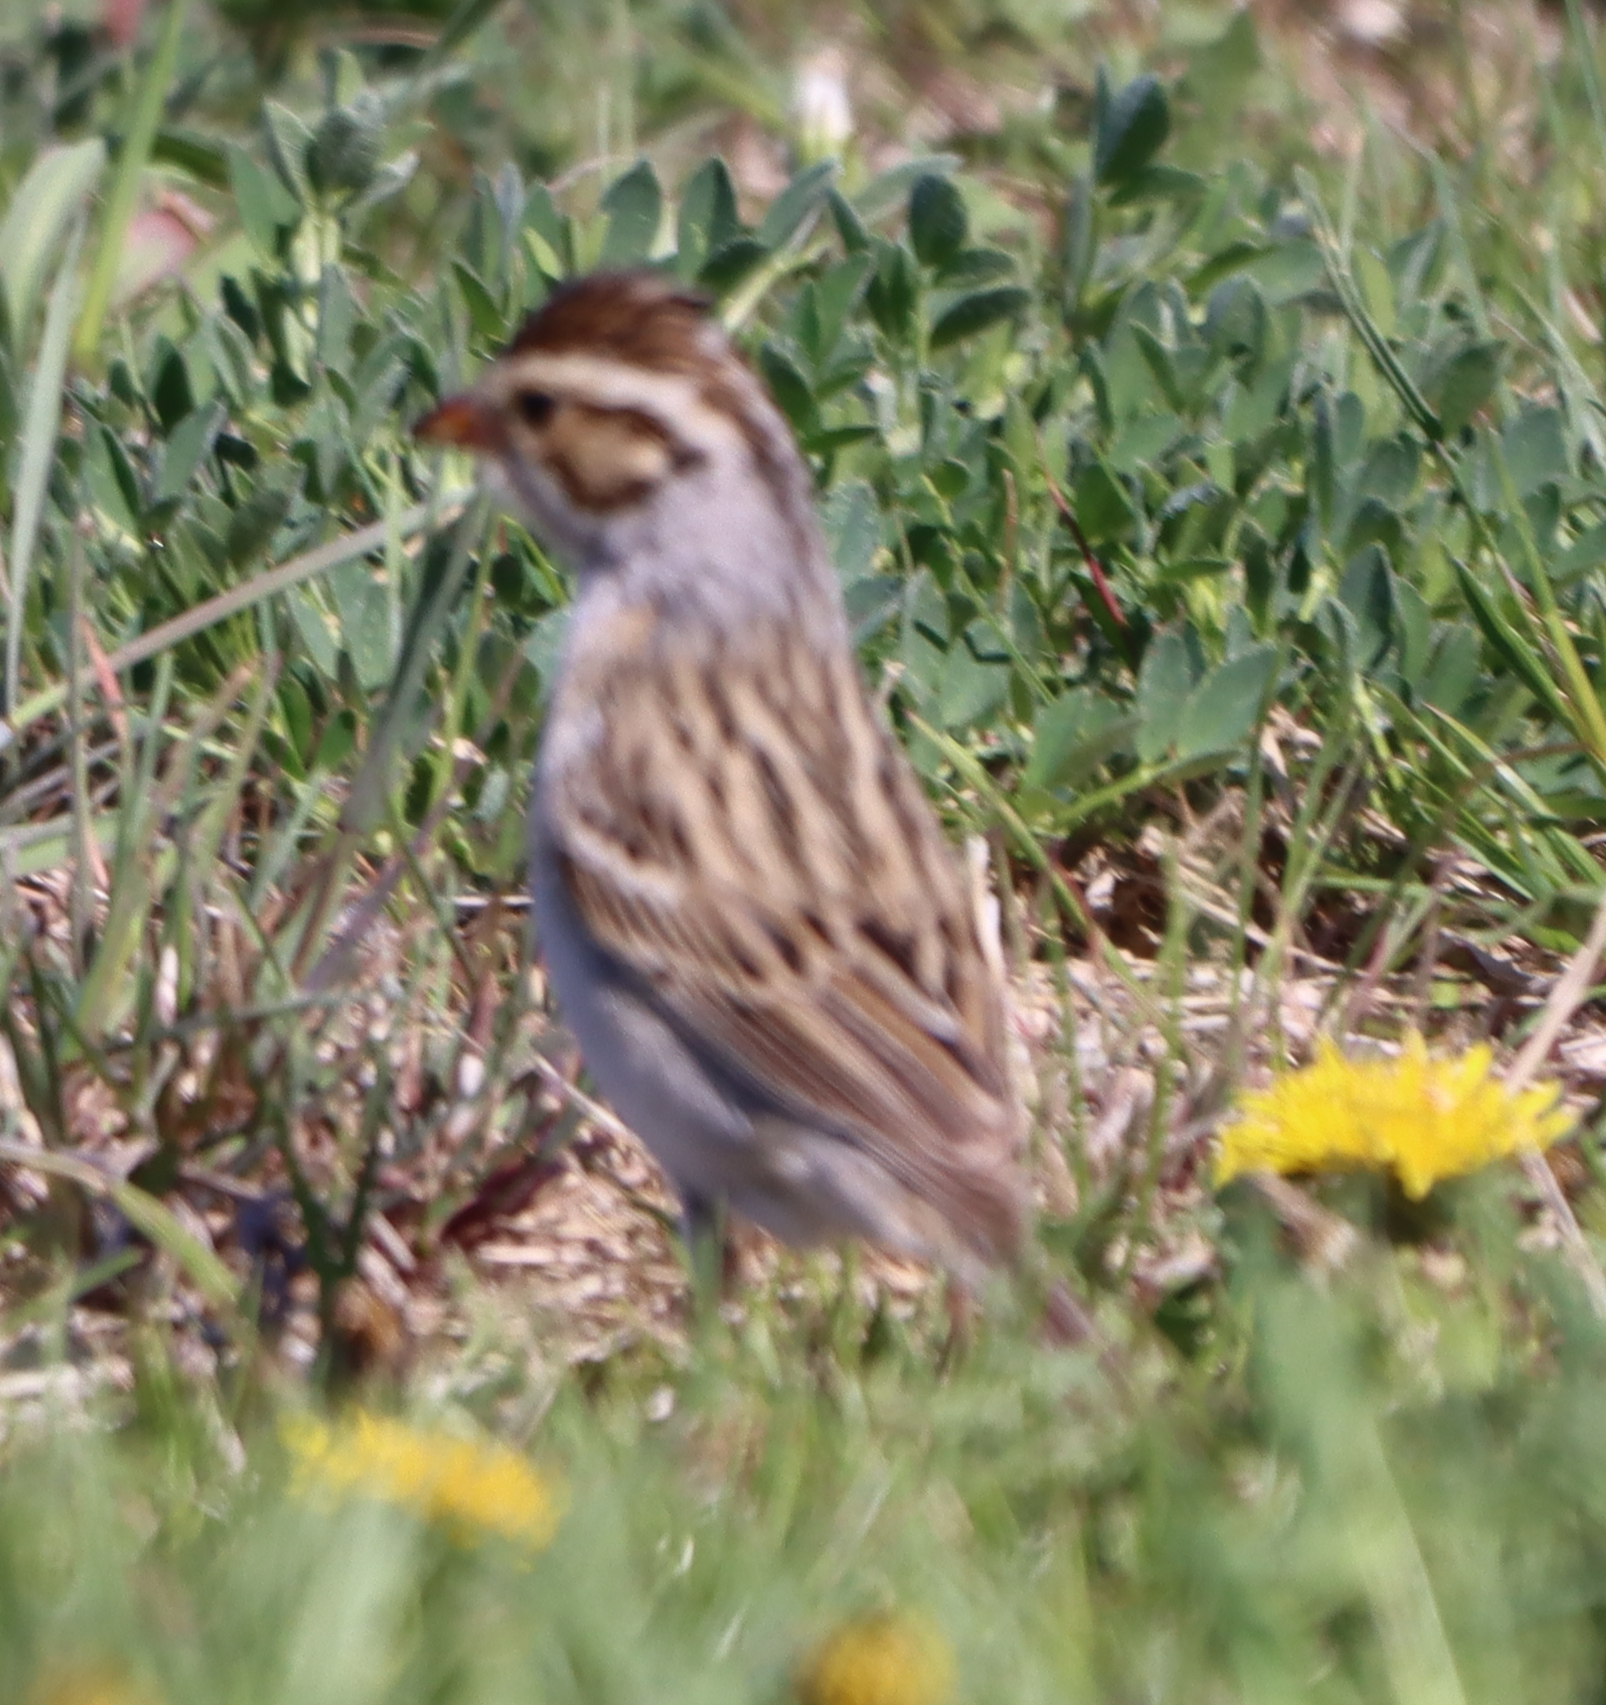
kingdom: Animalia
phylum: Chordata
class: Aves
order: Passeriformes
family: Passerellidae
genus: Spizella
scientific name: Spizella pallida
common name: Clay-colored sparrow
